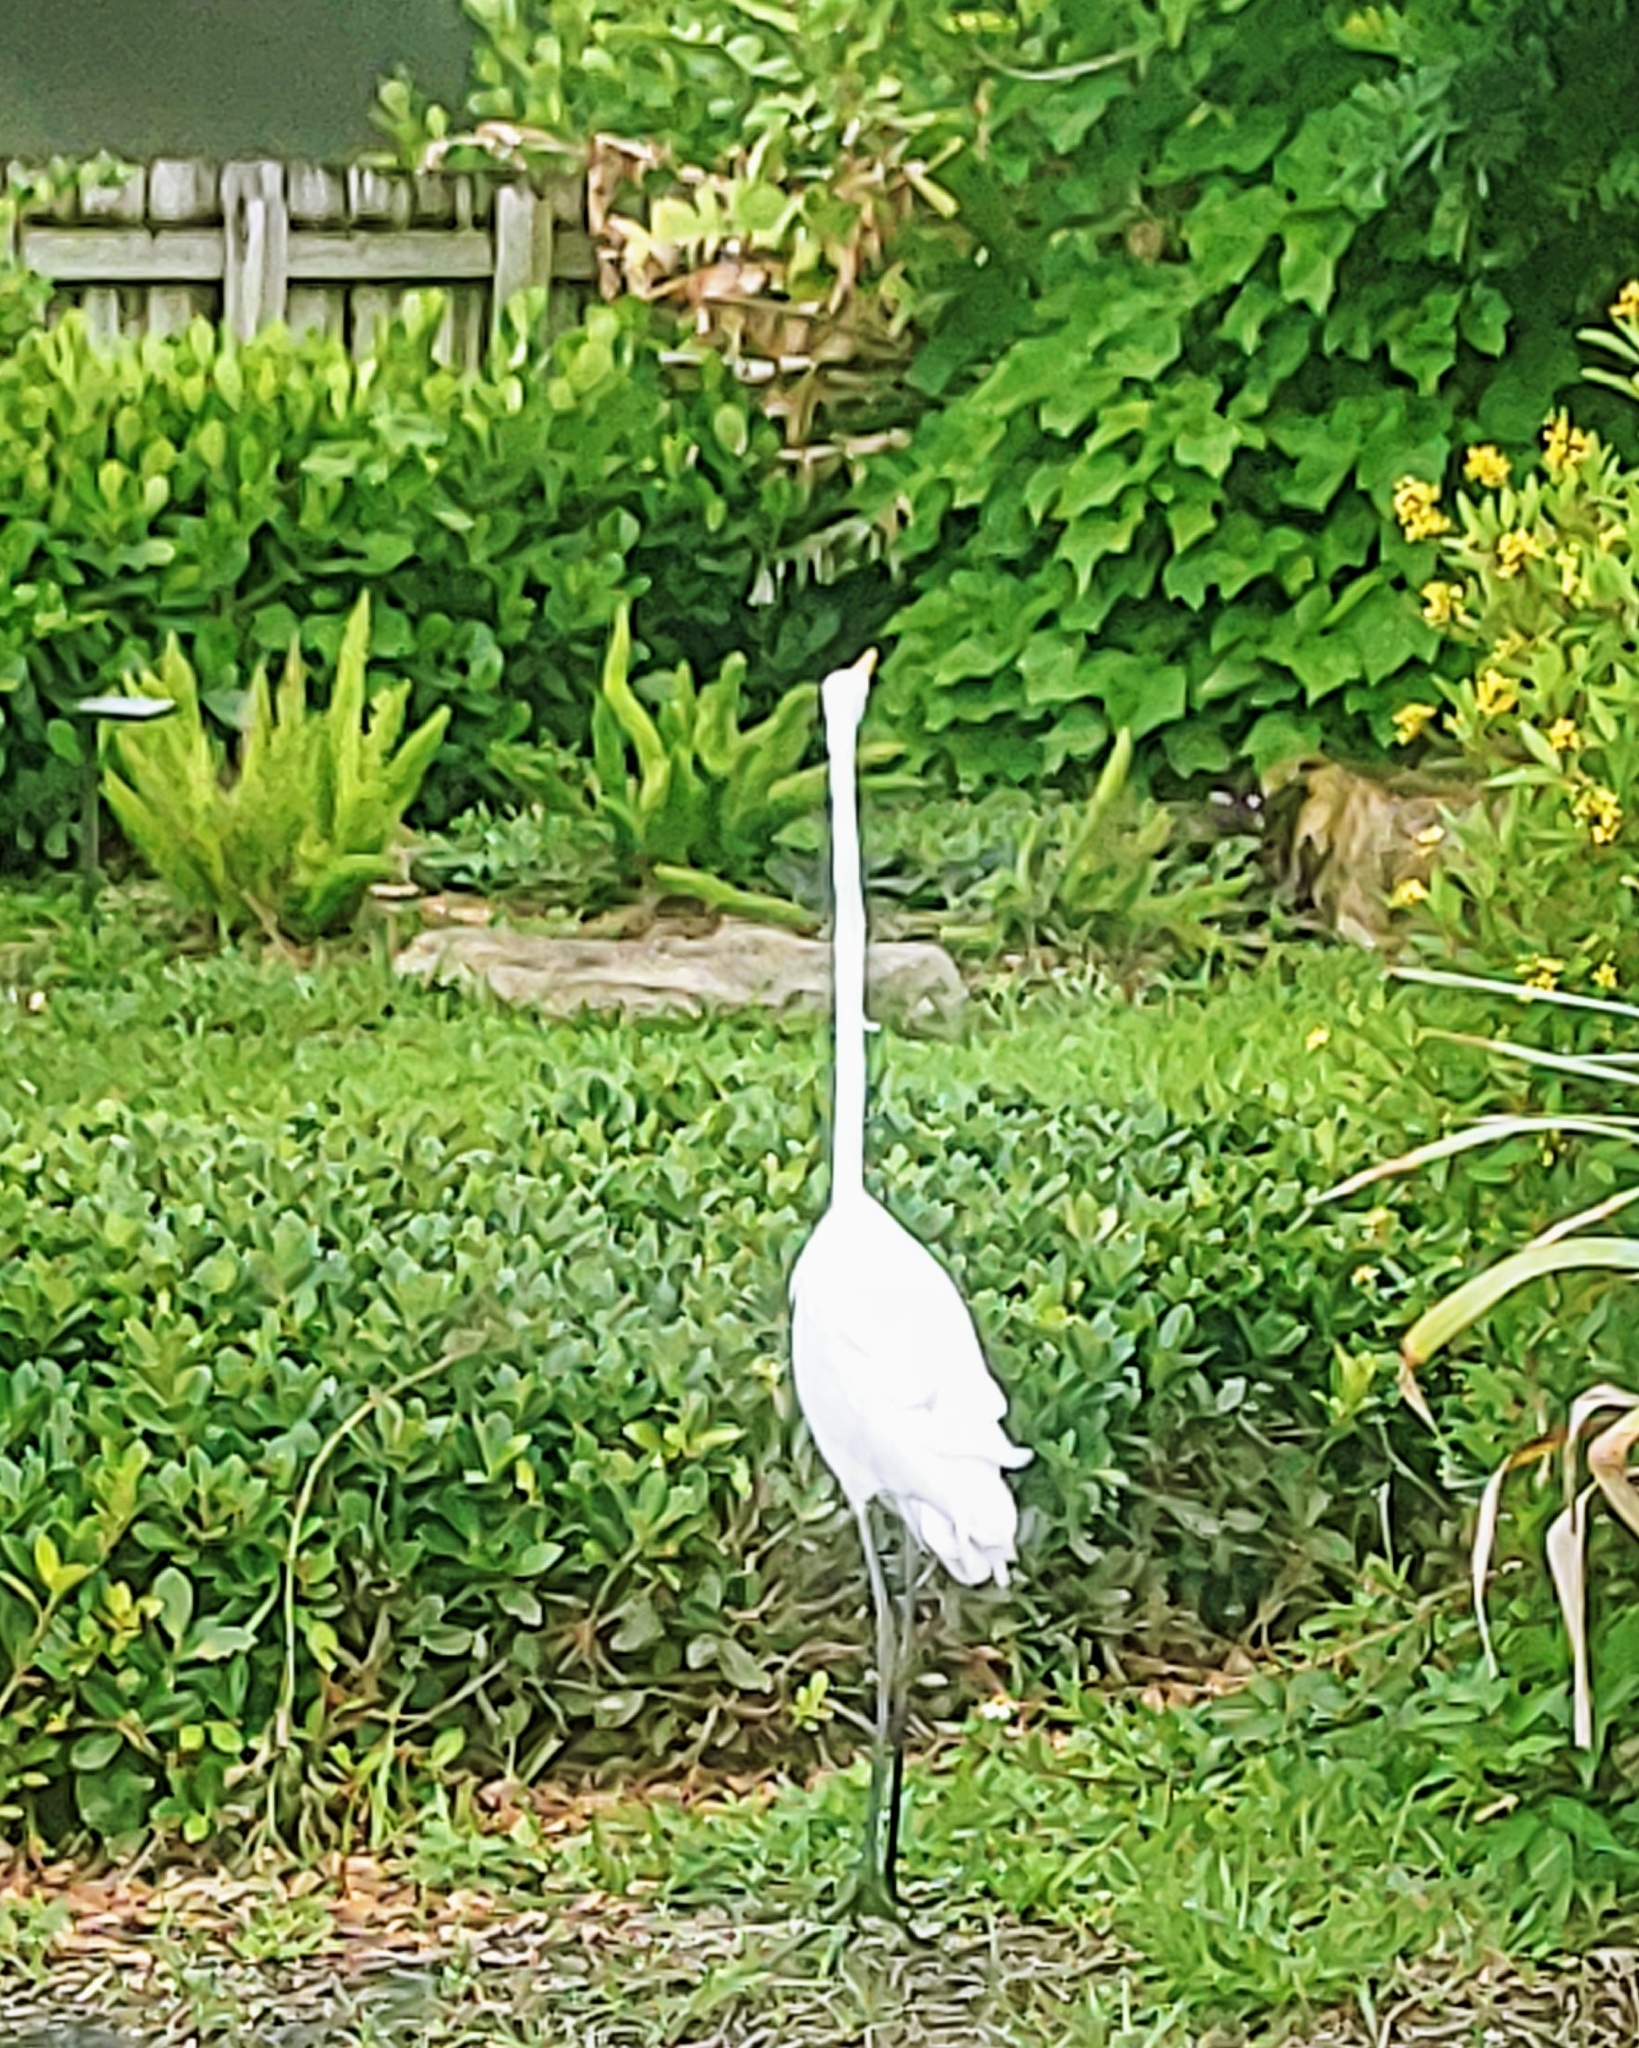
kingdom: Animalia
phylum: Chordata
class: Aves
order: Pelecaniformes
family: Ardeidae
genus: Ardea
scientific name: Ardea alba
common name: Great egret
